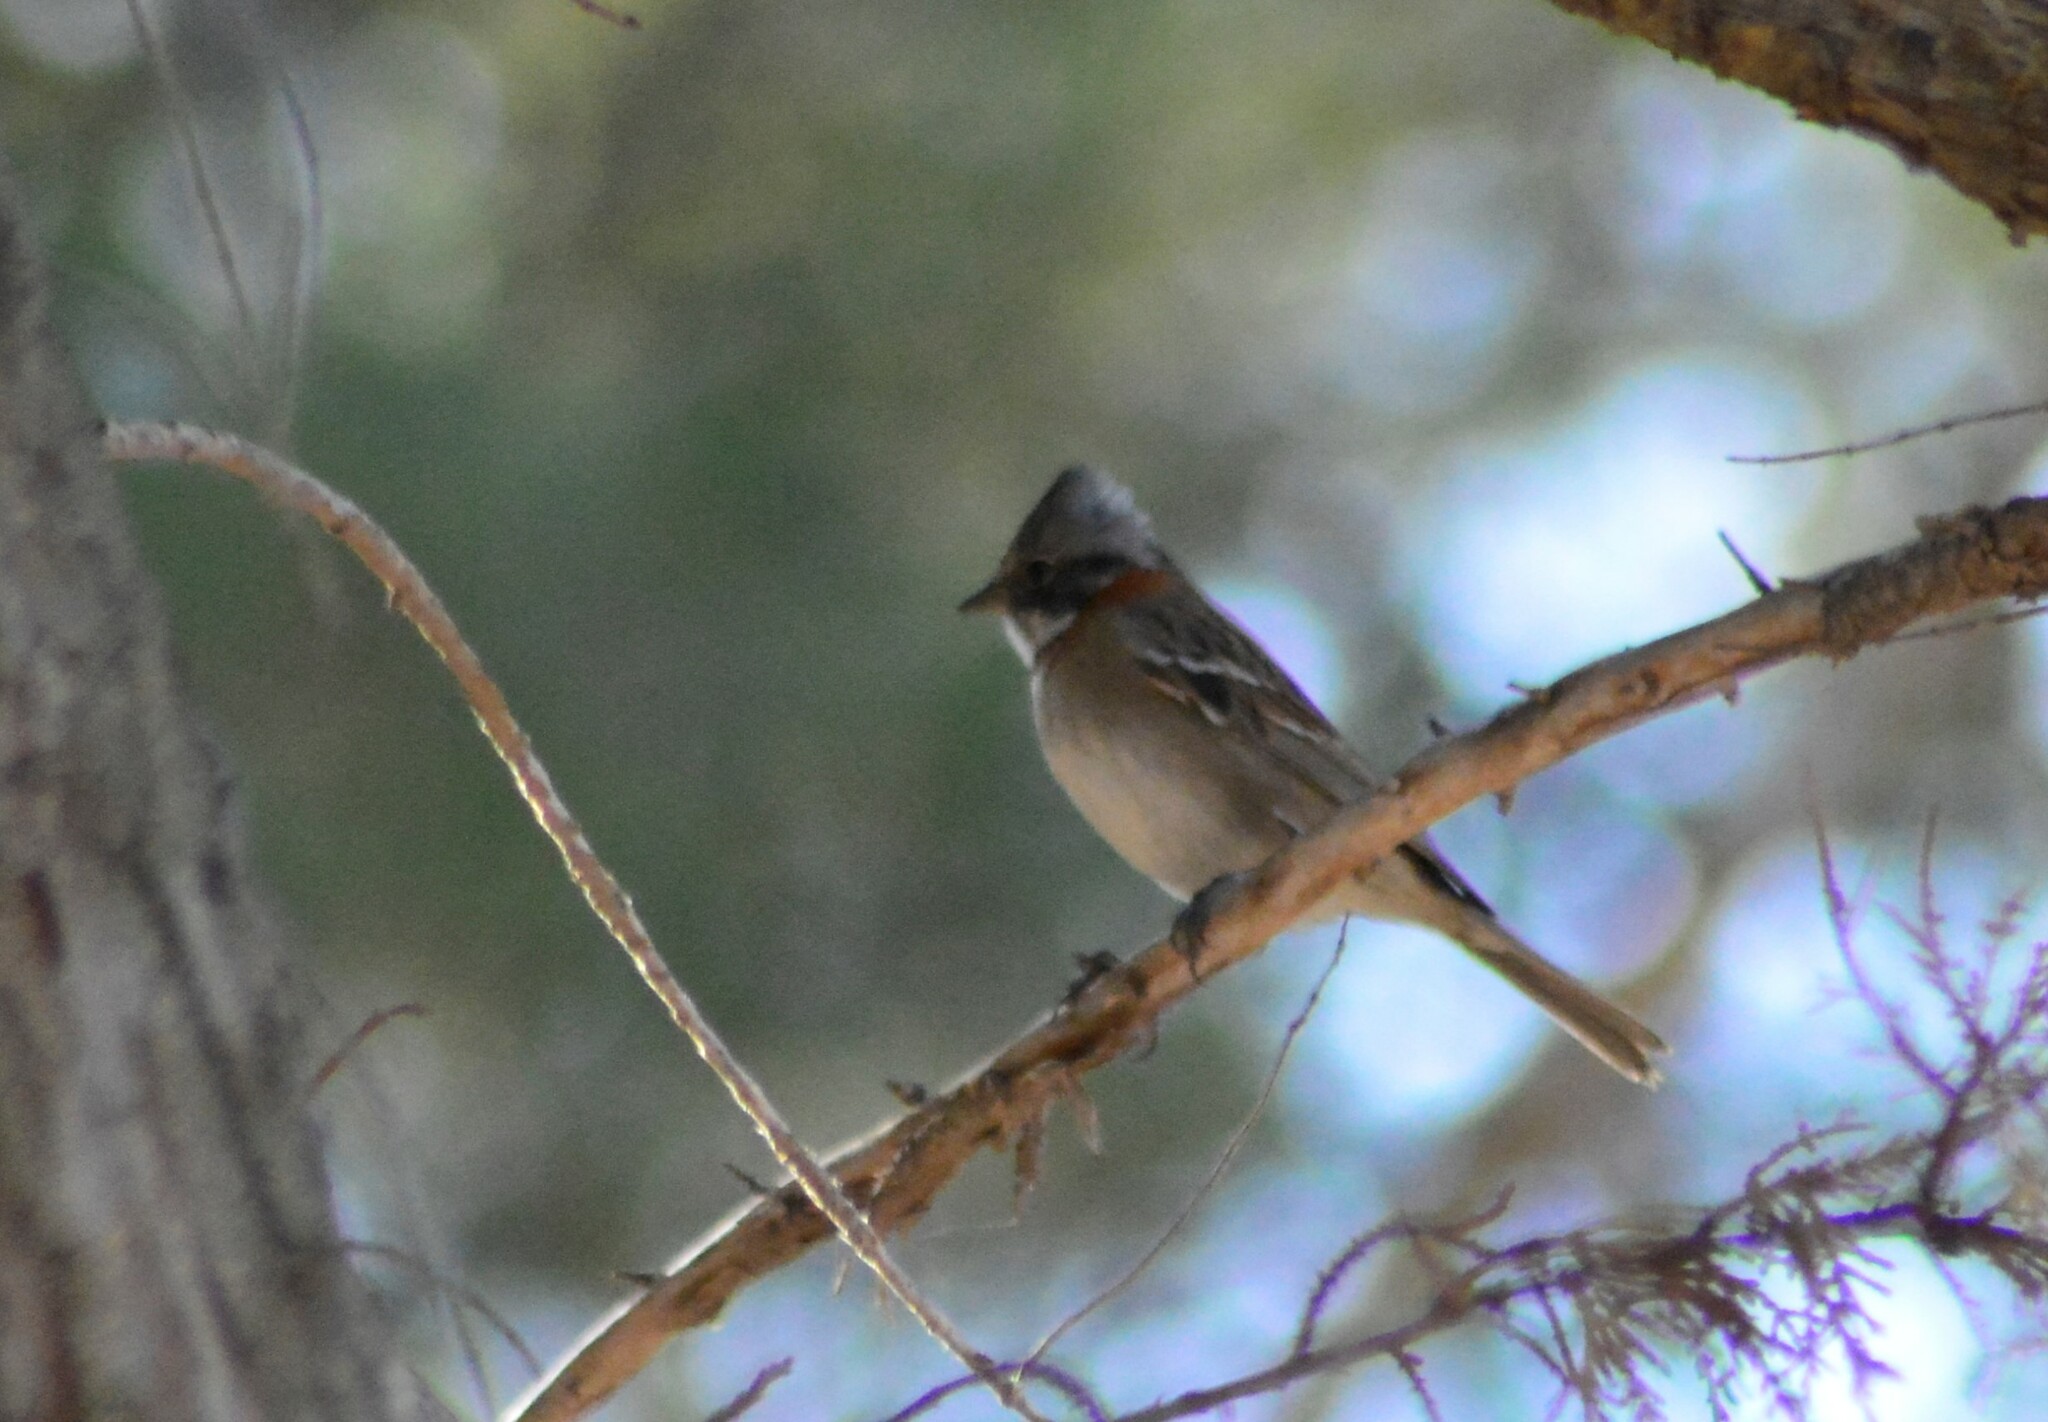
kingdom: Animalia
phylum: Chordata
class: Aves
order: Passeriformes
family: Passerellidae
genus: Zonotrichia
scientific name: Zonotrichia capensis
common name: Rufous-collared sparrow
